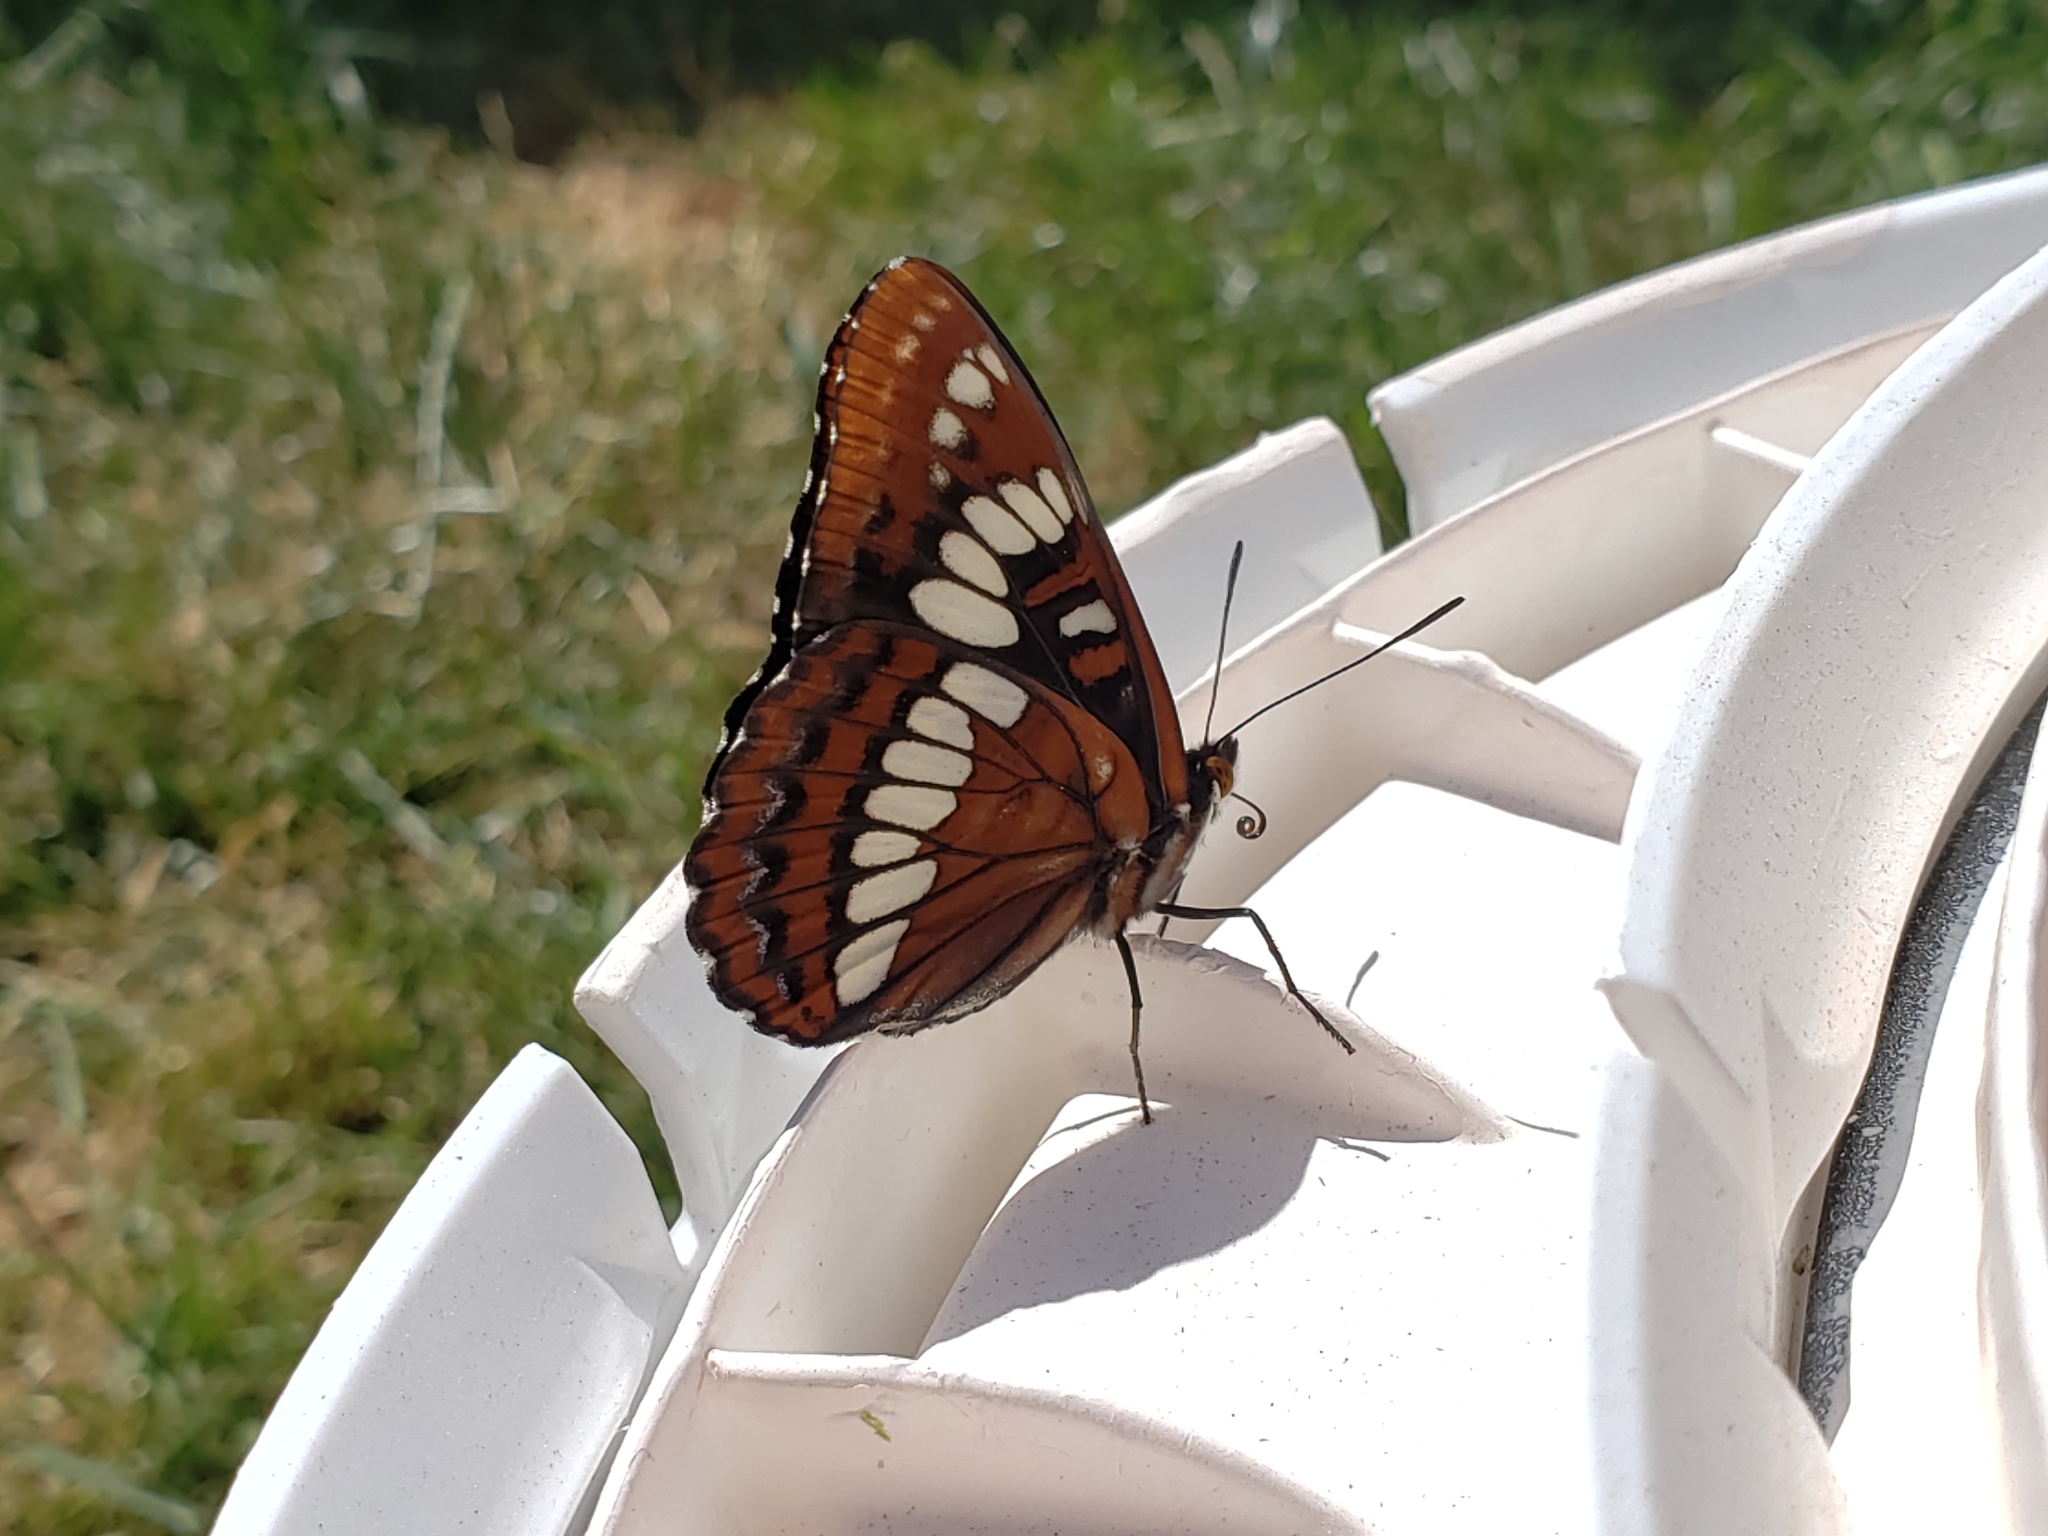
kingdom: Animalia
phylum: Arthropoda
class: Insecta
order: Lepidoptera
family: Nymphalidae
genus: Limenitis
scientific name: Limenitis lorquini
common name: Lorquin's admiral
